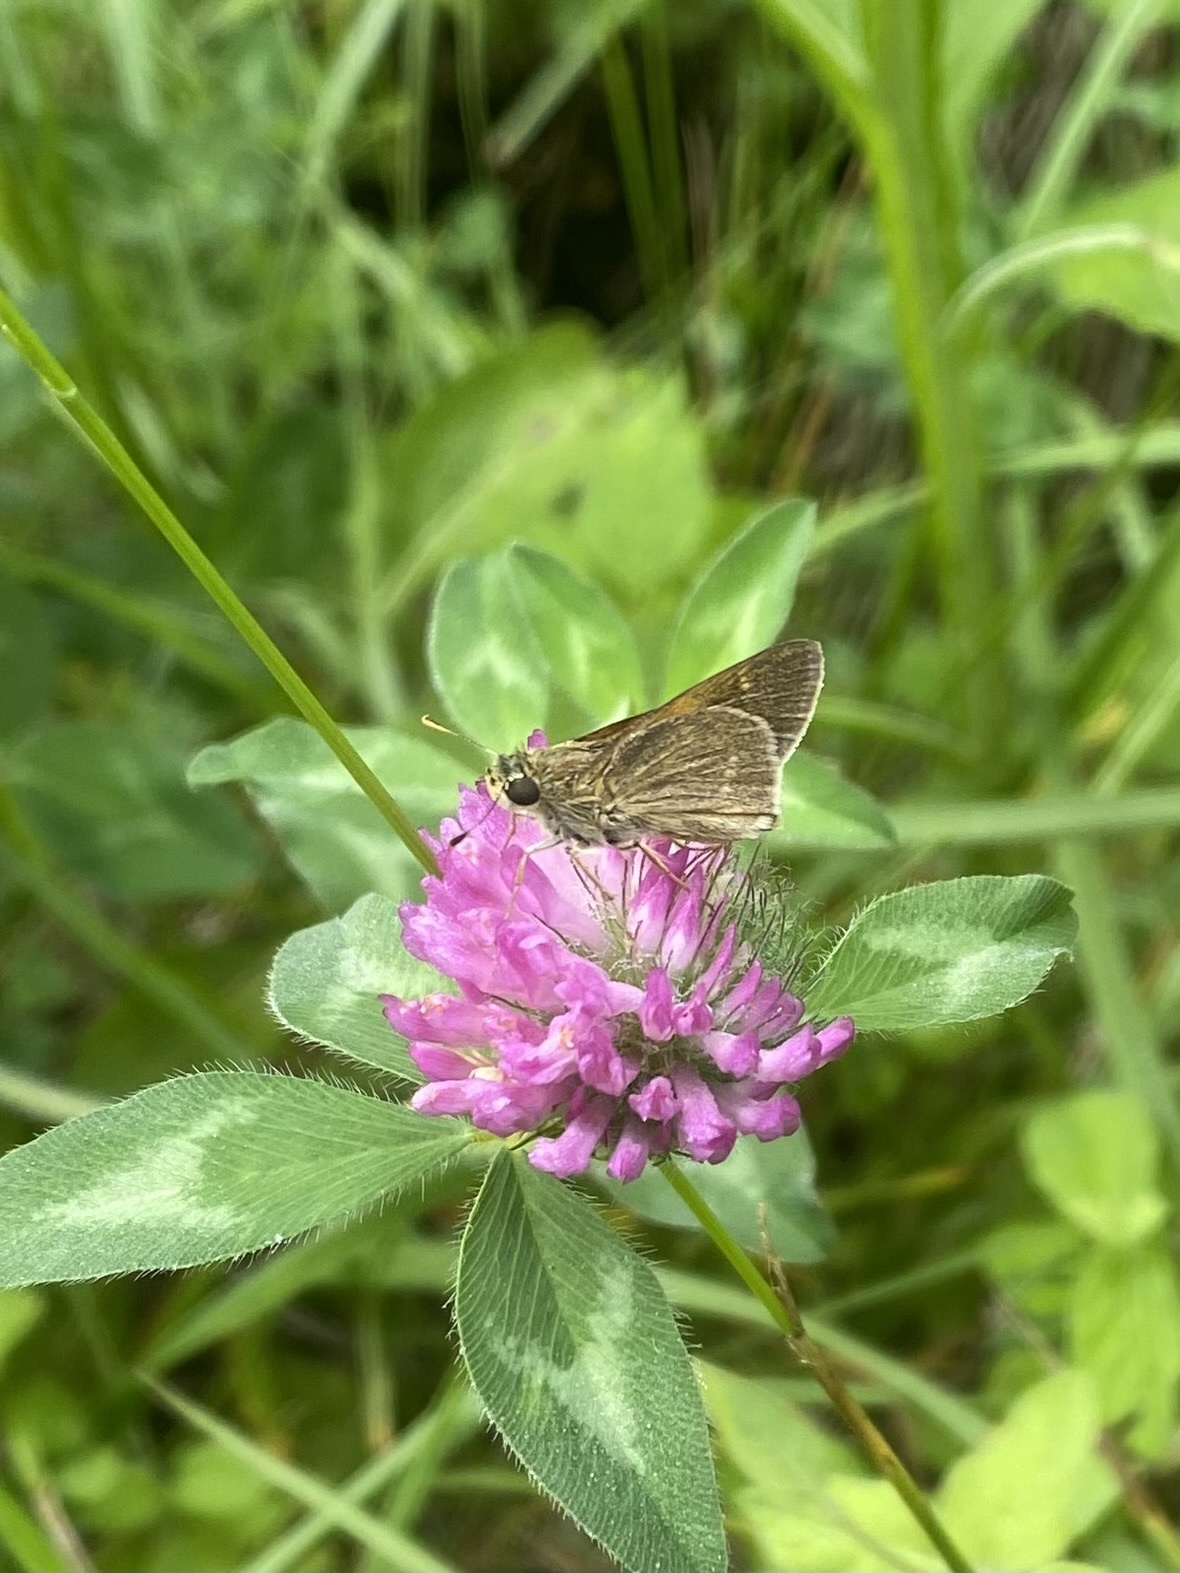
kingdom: Animalia
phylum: Arthropoda
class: Insecta
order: Lepidoptera
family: Hesperiidae
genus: Vernia
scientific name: Vernia verna
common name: Little glassywing
